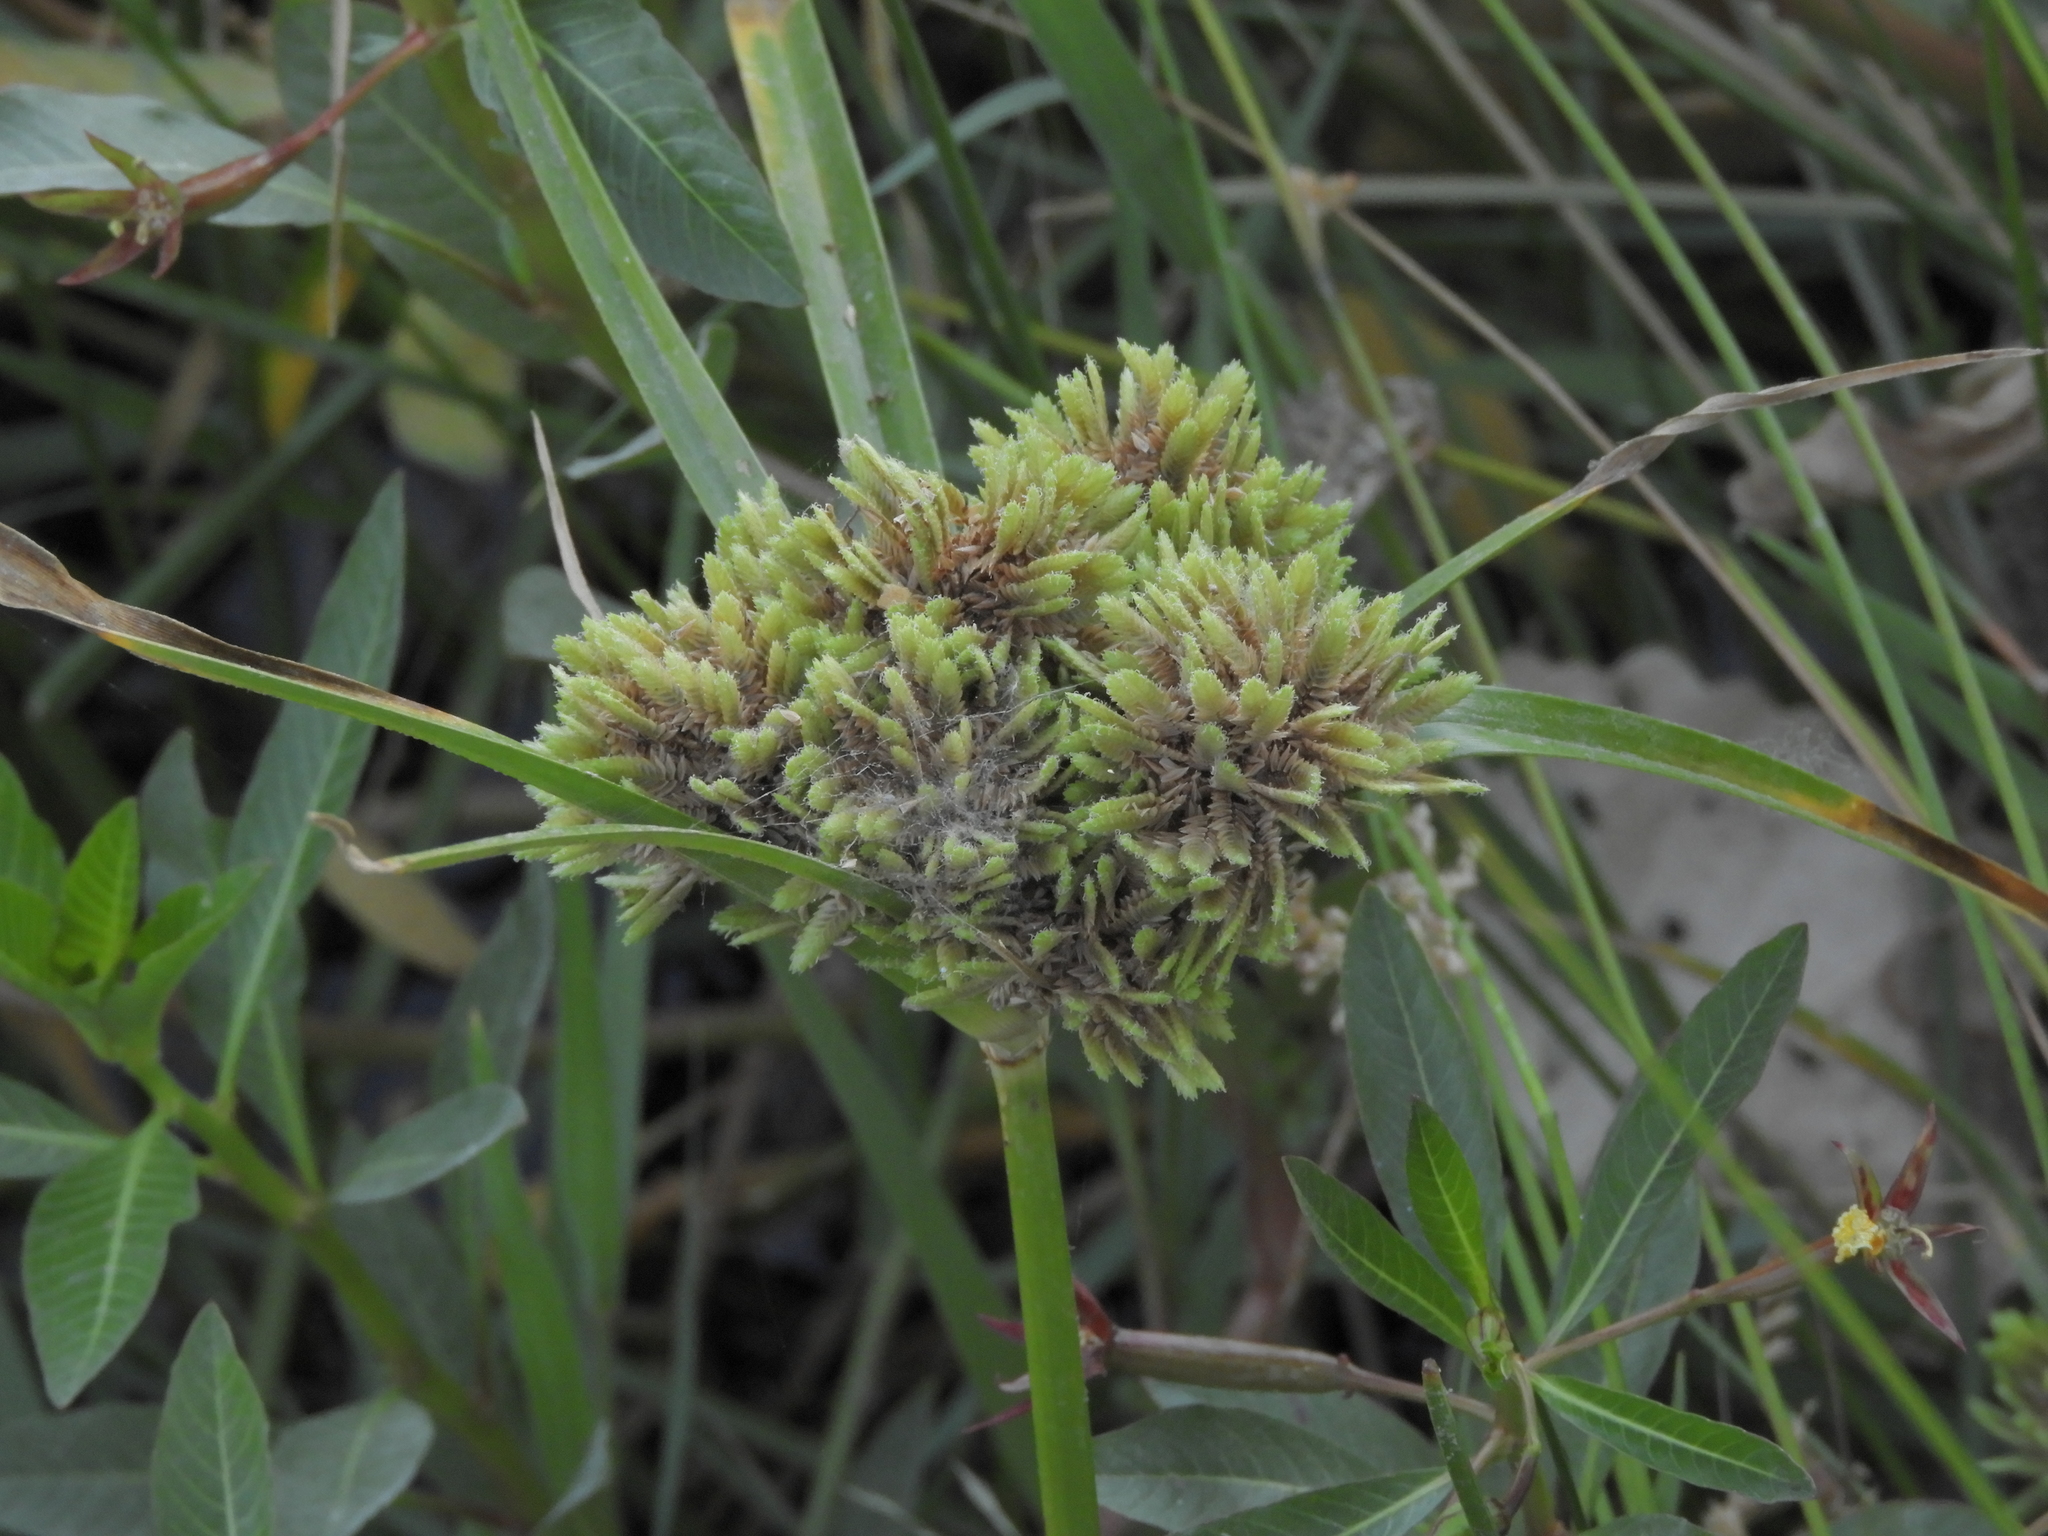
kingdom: Plantae
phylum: Tracheophyta
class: Liliopsida
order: Poales
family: Cyperaceae
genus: Cyperus
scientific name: Cyperus eragrostis
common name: Tall flatsedge
